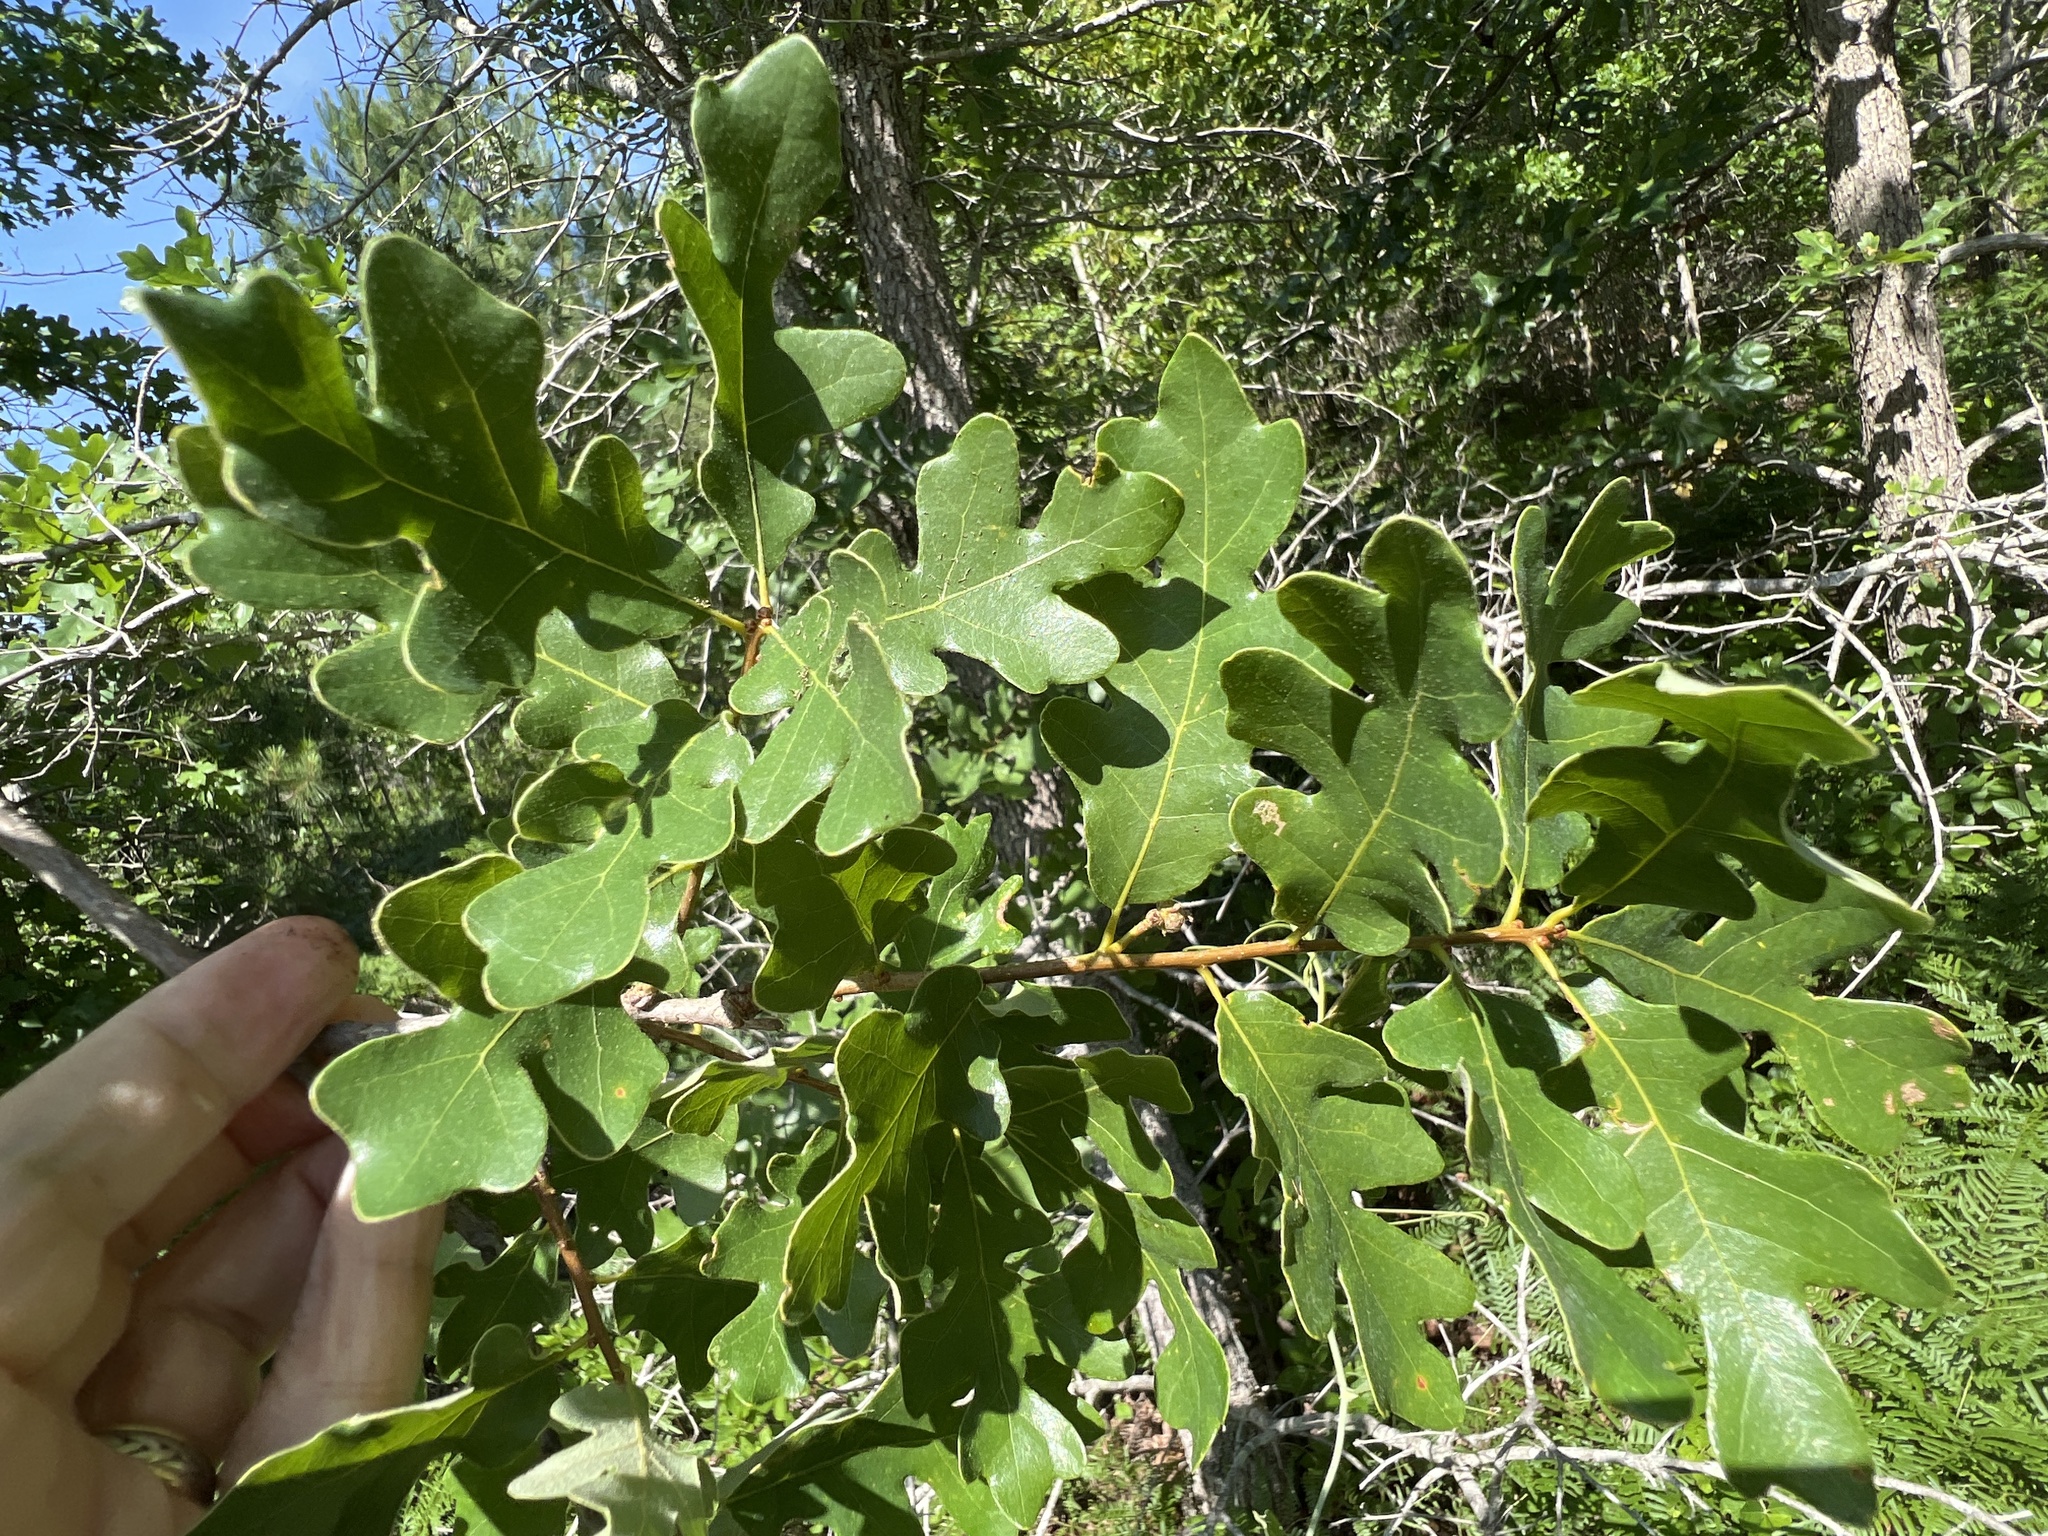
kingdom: Plantae
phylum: Tracheophyta
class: Magnoliopsida
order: Fagales
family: Fagaceae
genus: Quercus
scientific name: Quercus margaretiae
